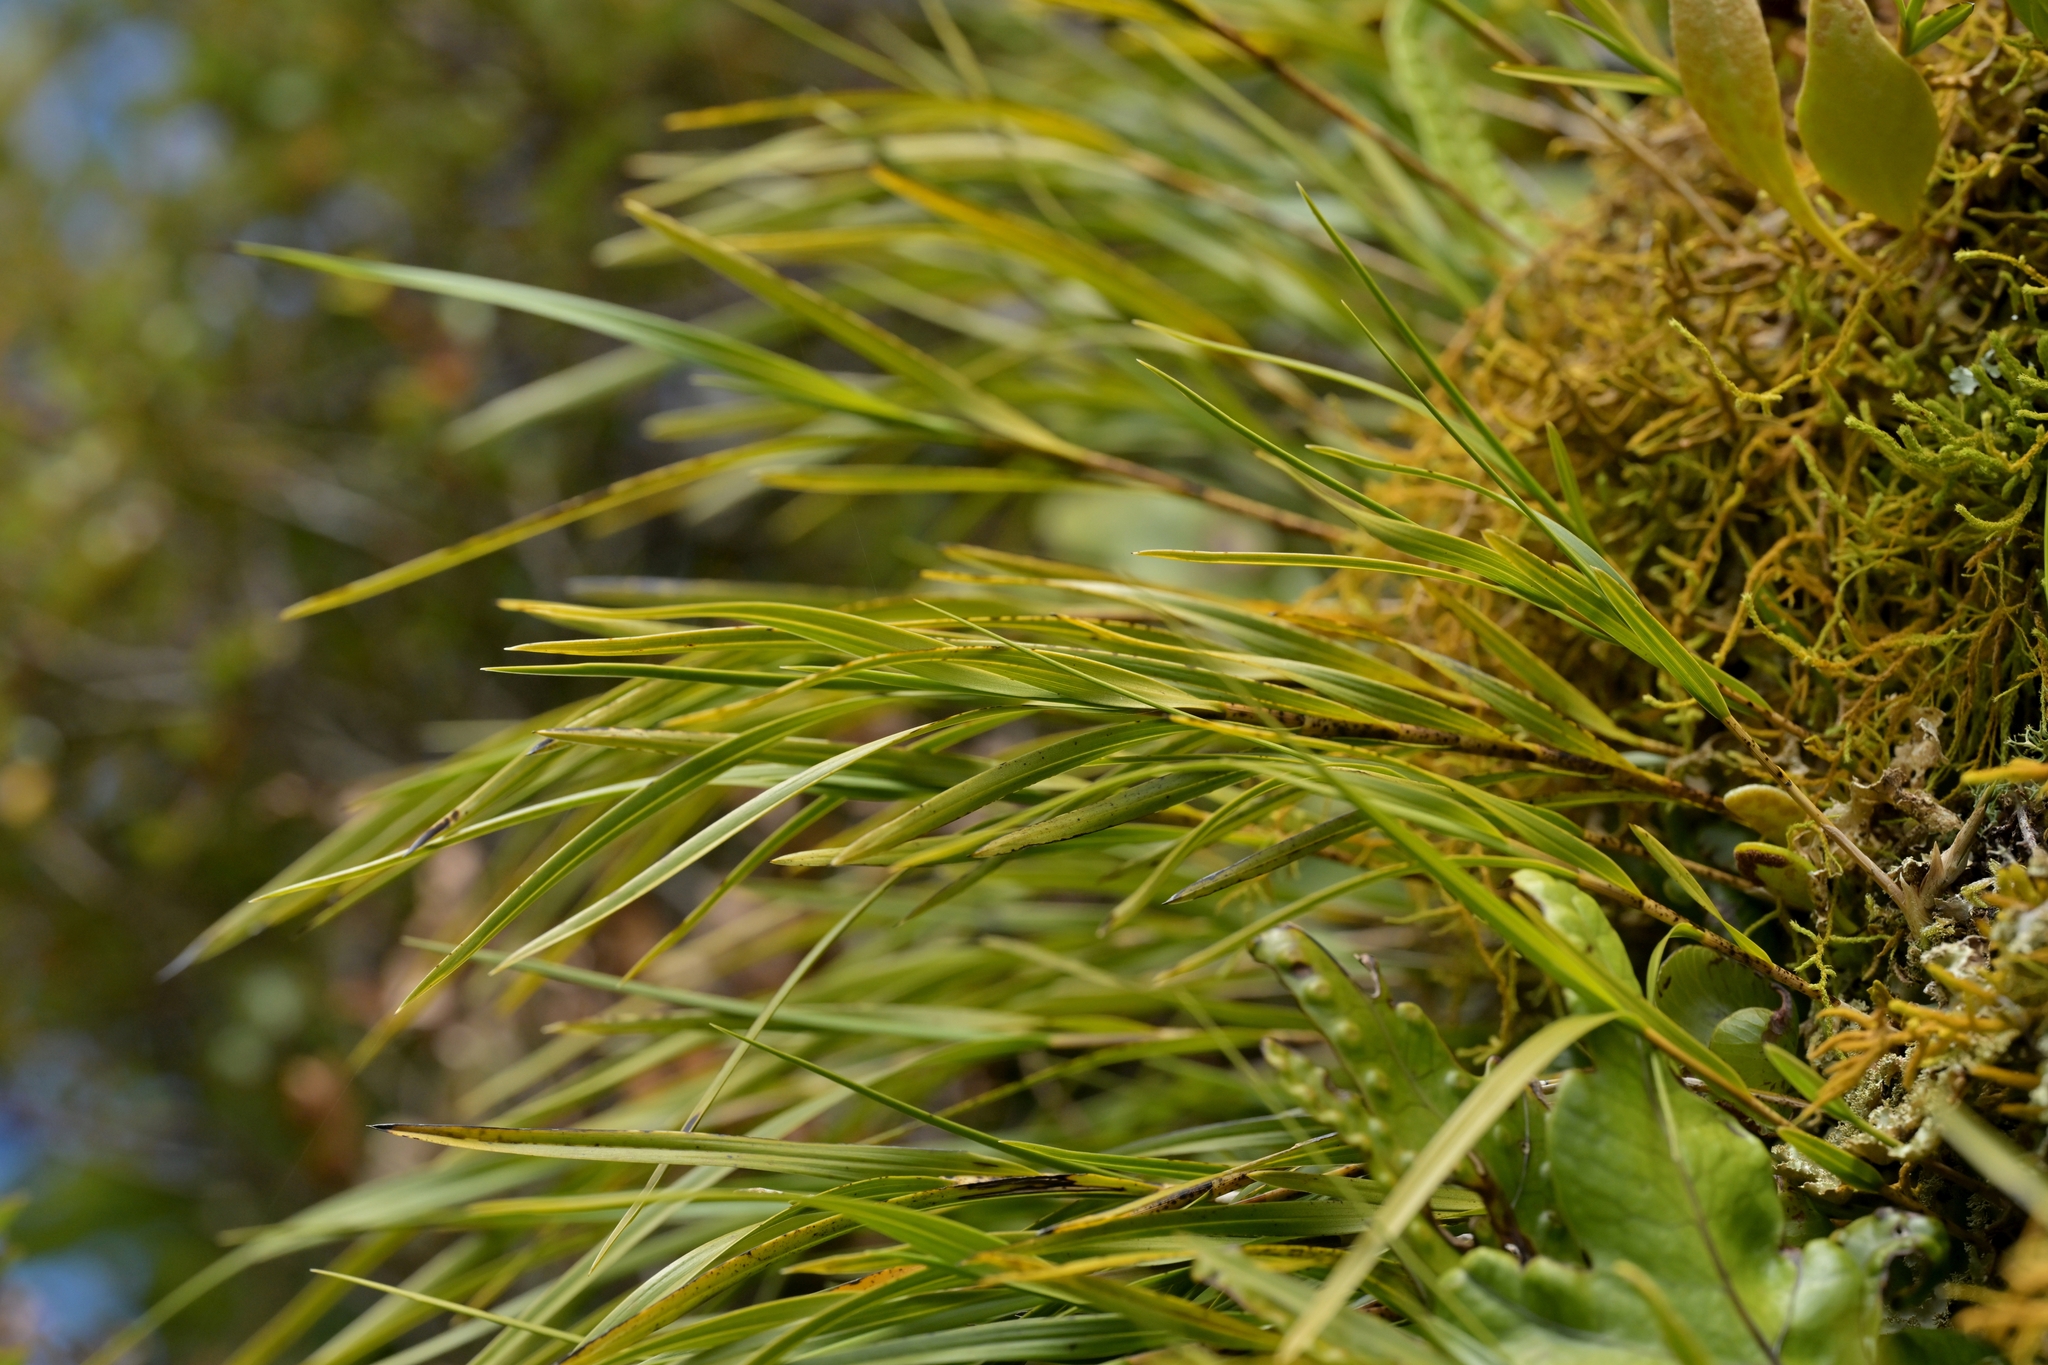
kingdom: Plantae
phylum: Tracheophyta
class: Liliopsida
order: Asparagales
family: Orchidaceae
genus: Earina
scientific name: Earina mucronata
